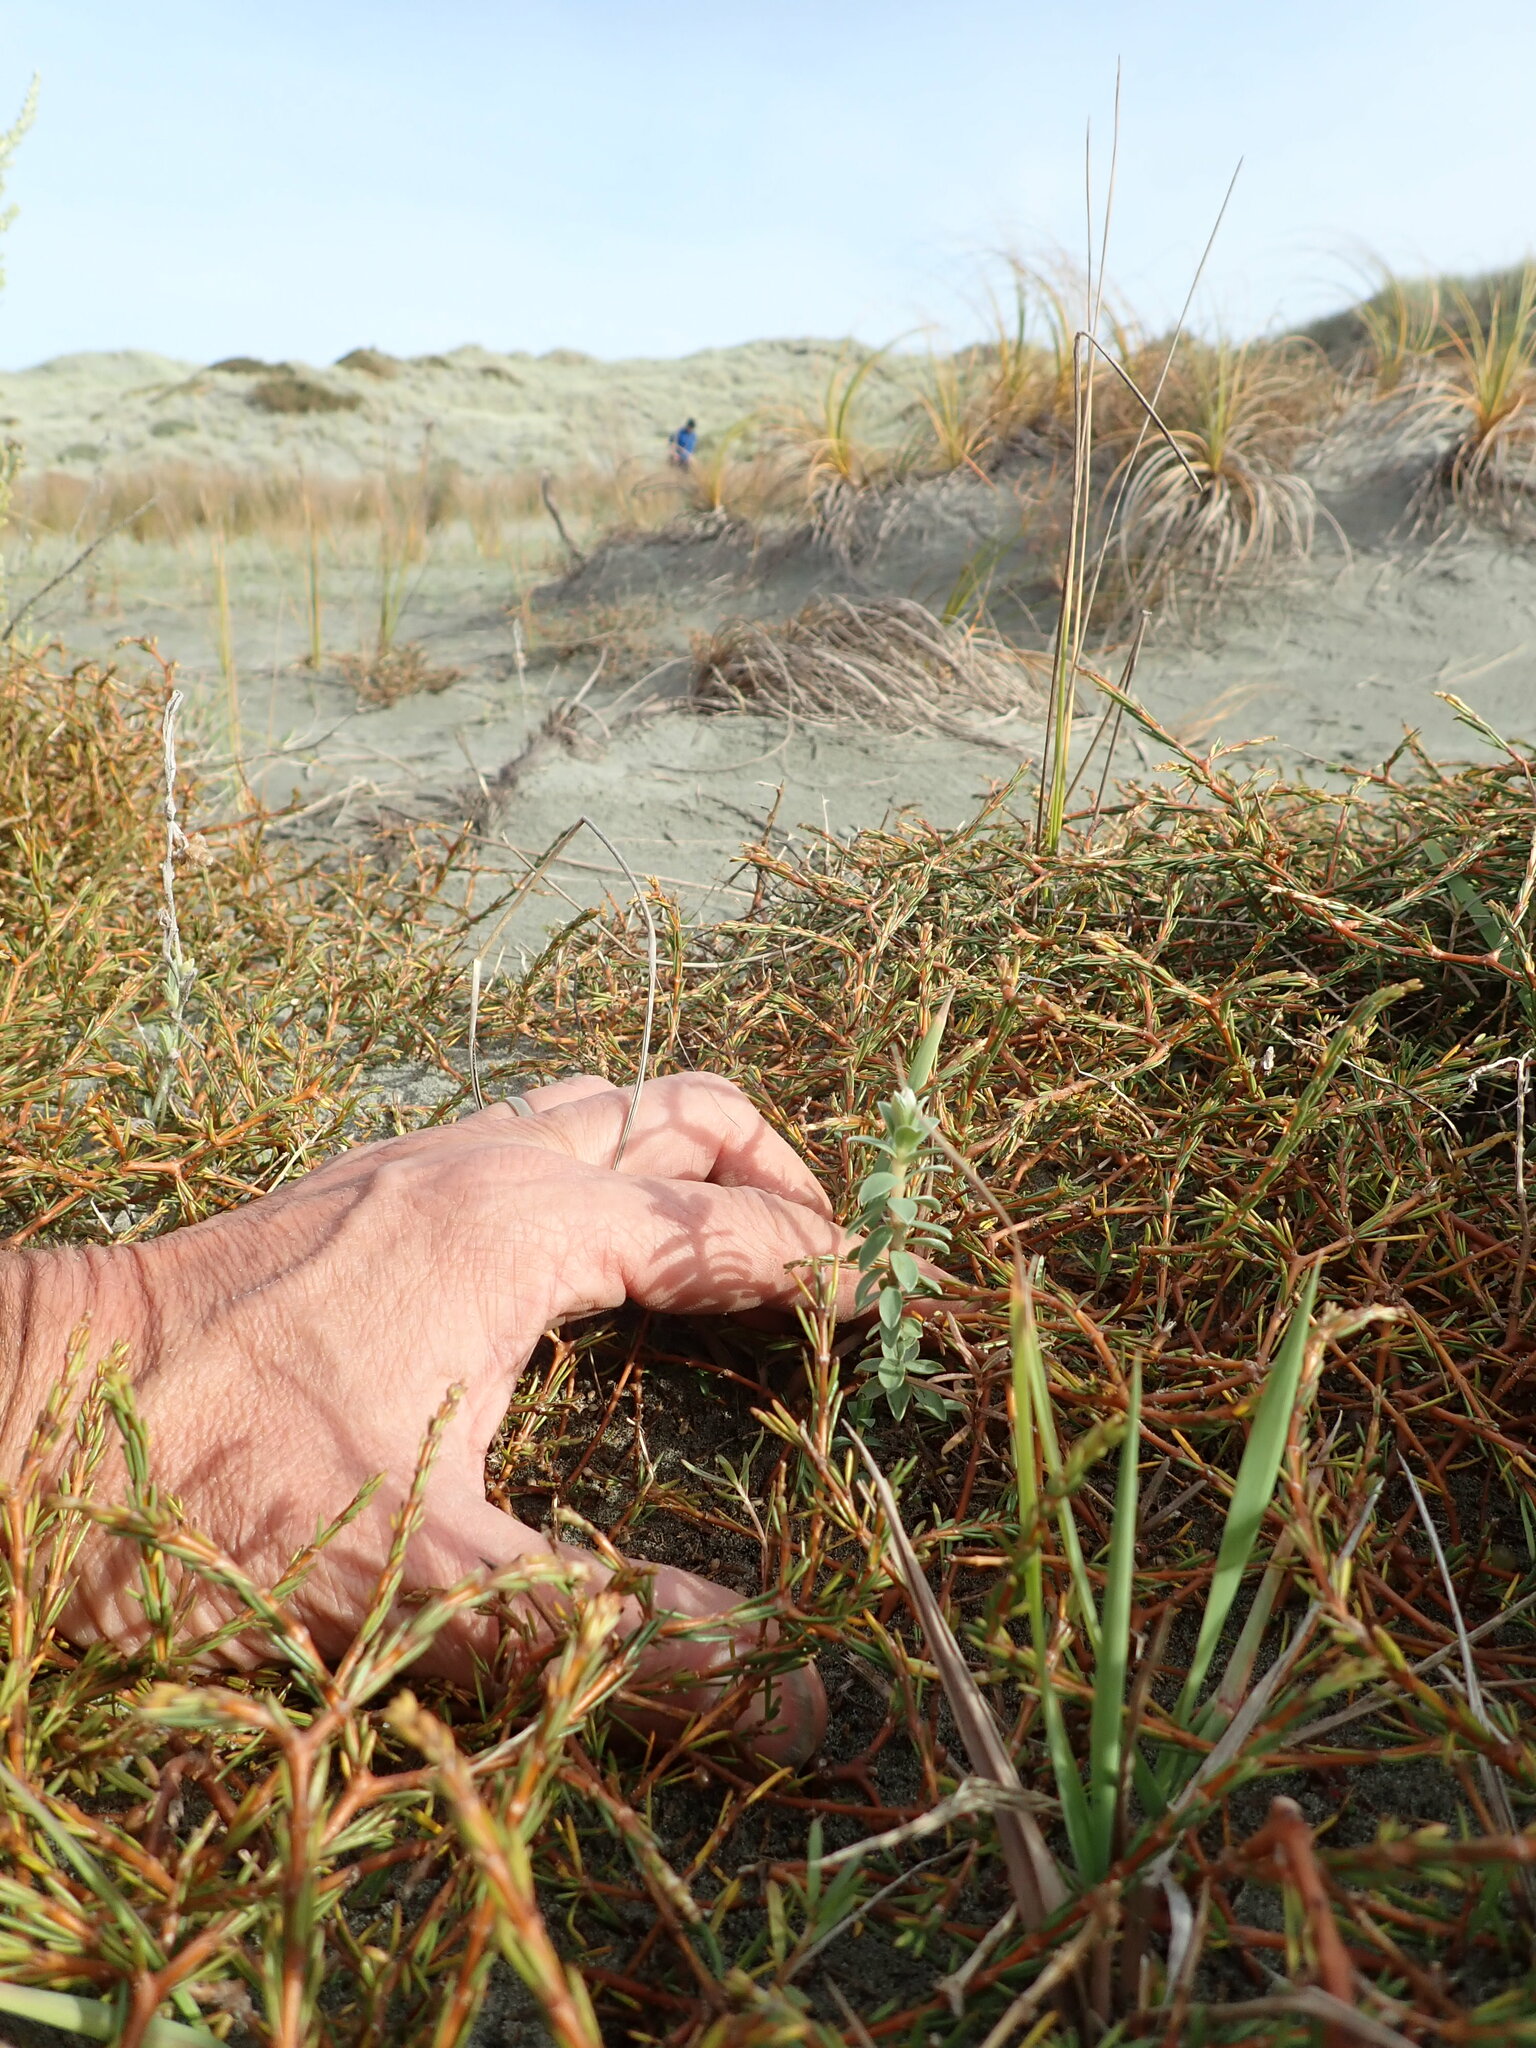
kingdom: Plantae
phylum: Tracheophyta
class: Magnoliopsida
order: Malvales
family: Thymelaeaceae
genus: Pimelea
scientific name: Pimelea villosa
